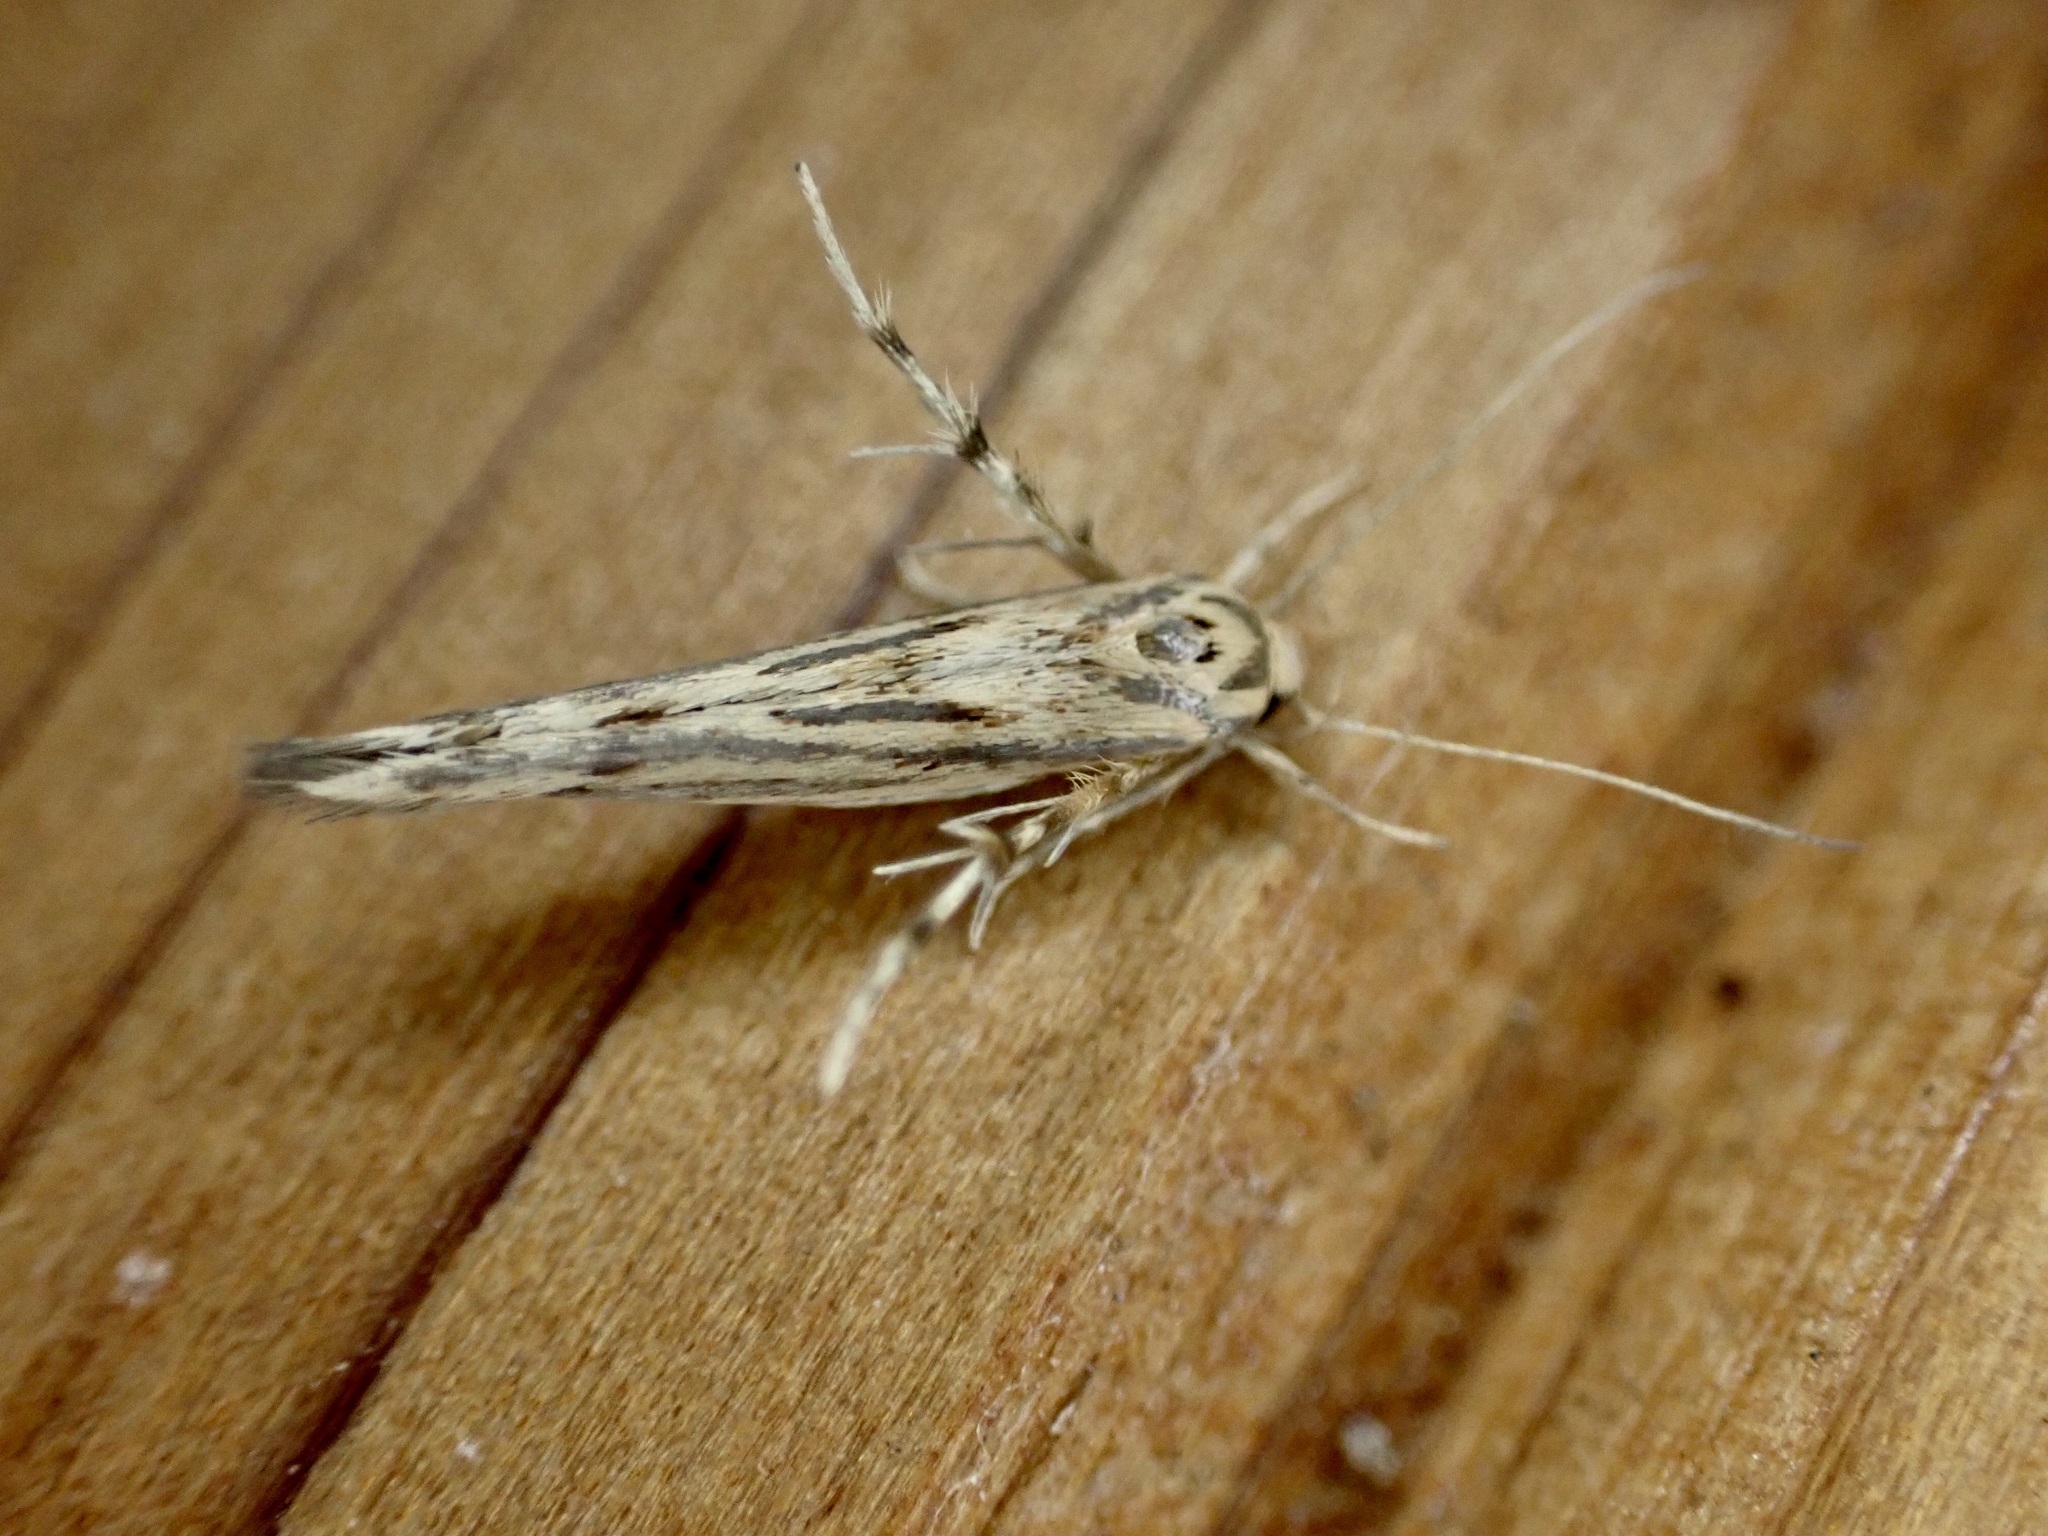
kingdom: Animalia
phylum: Arthropoda
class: Insecta
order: Lepidoptera
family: Stathmopodidae
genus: Stathmopoda
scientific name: Stathmopoda plumbiflua
